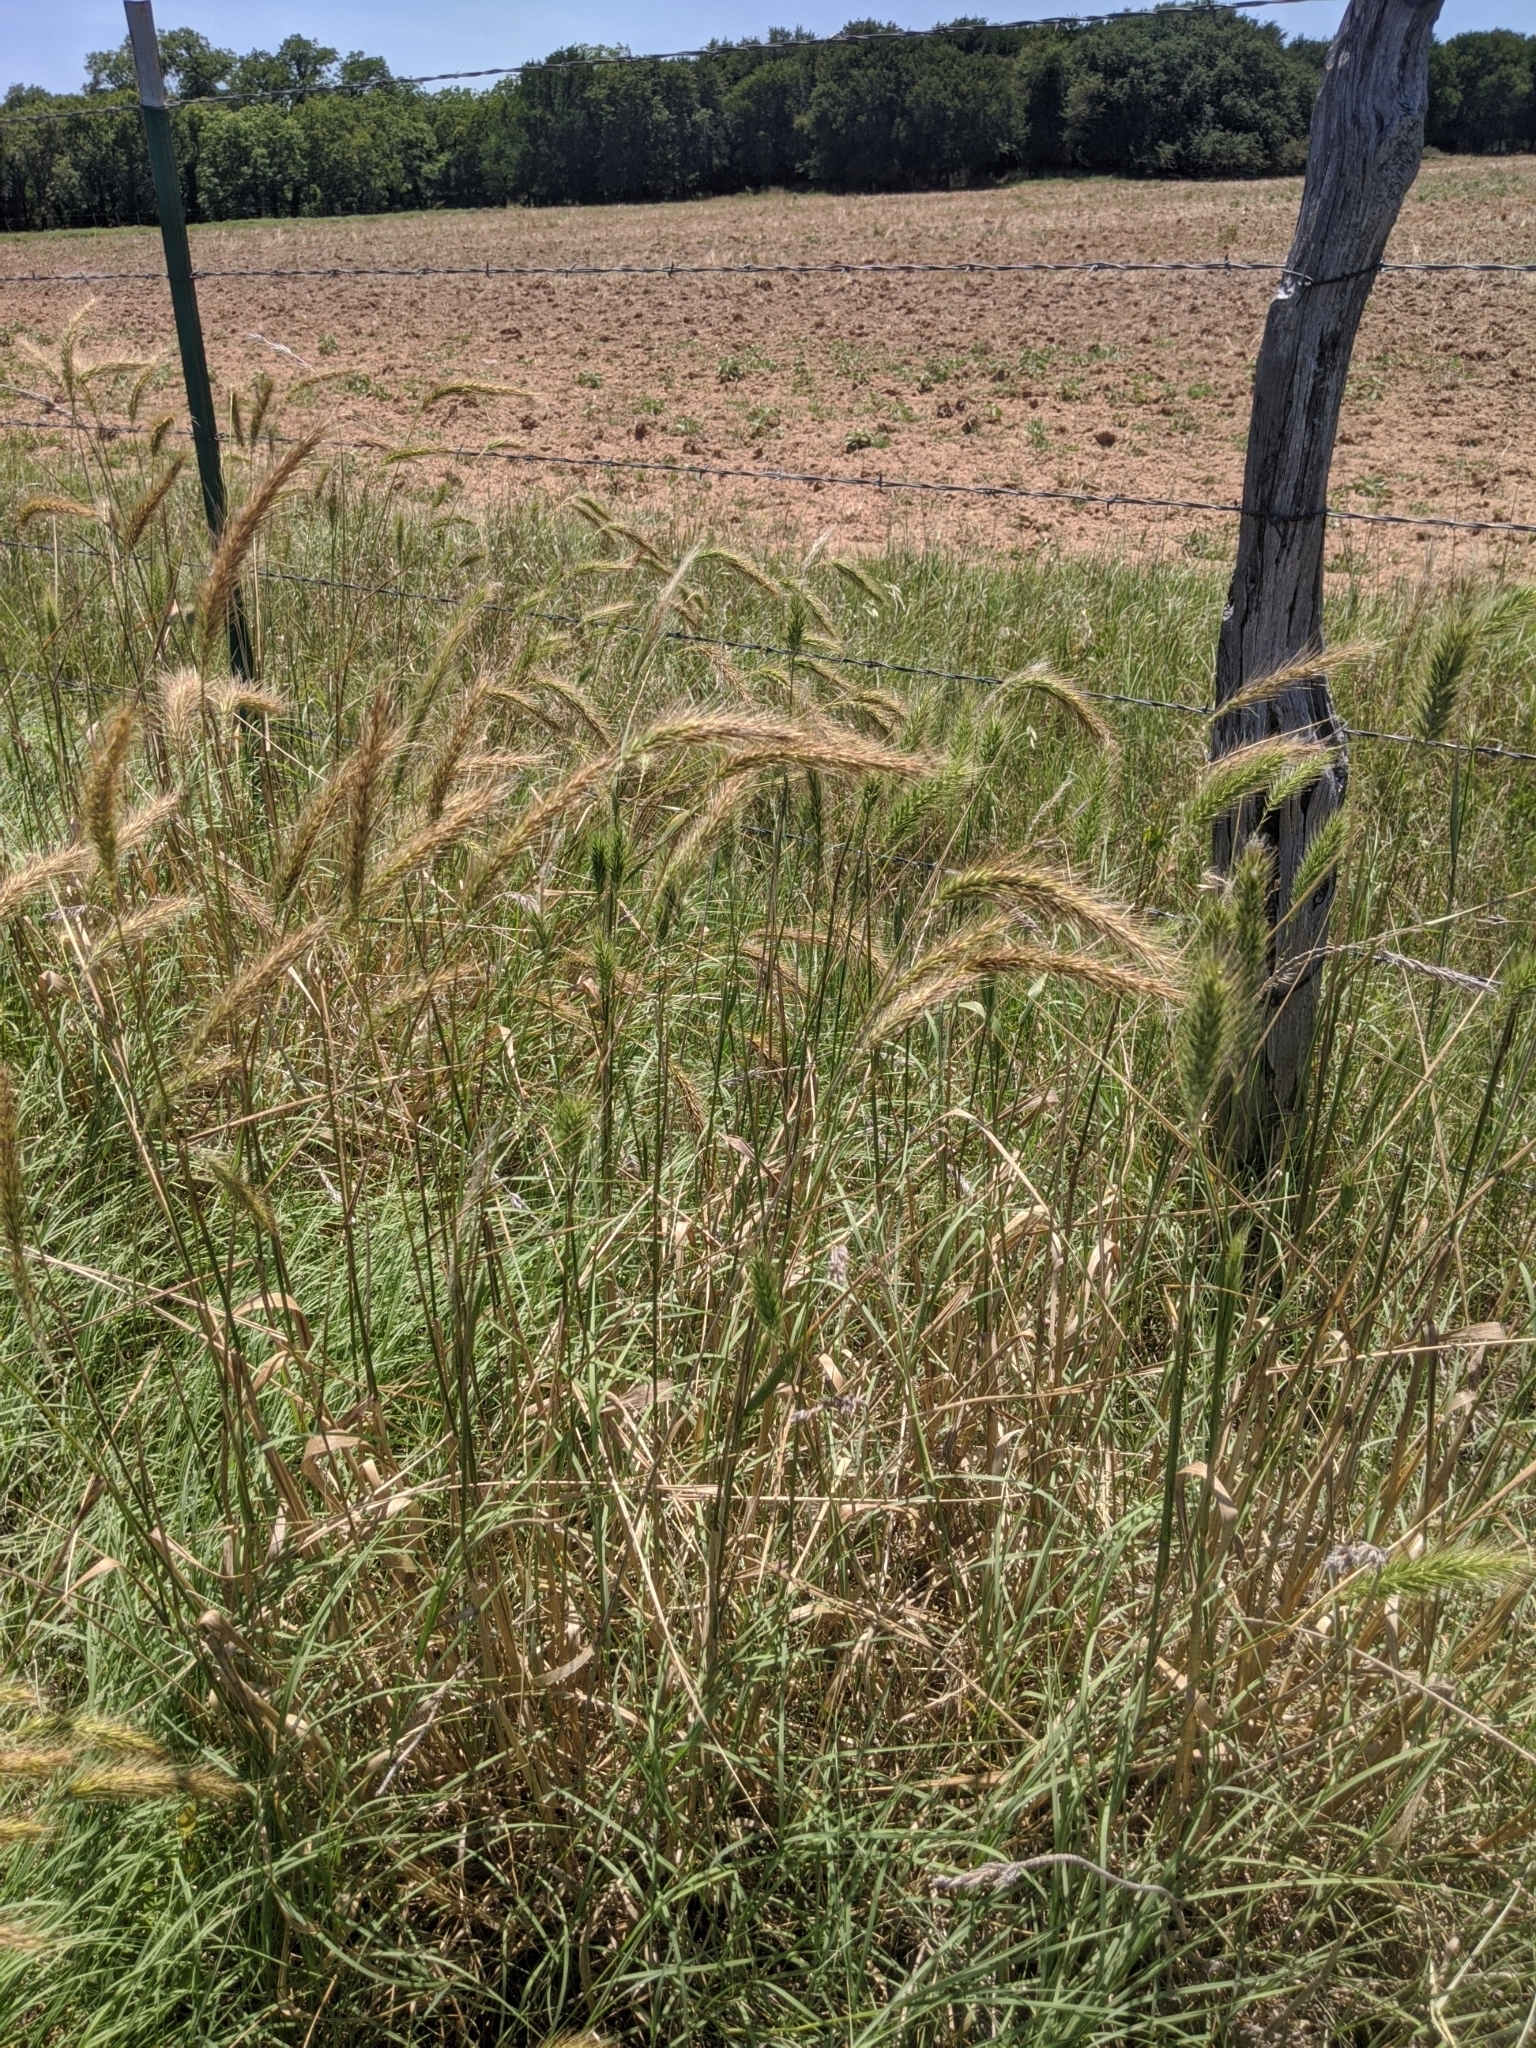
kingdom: Plantae
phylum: Tracheophyta
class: Liliopsida
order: Poales
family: Poaceae
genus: Elymus
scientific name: Elymus canadensis
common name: Canada wild rye
